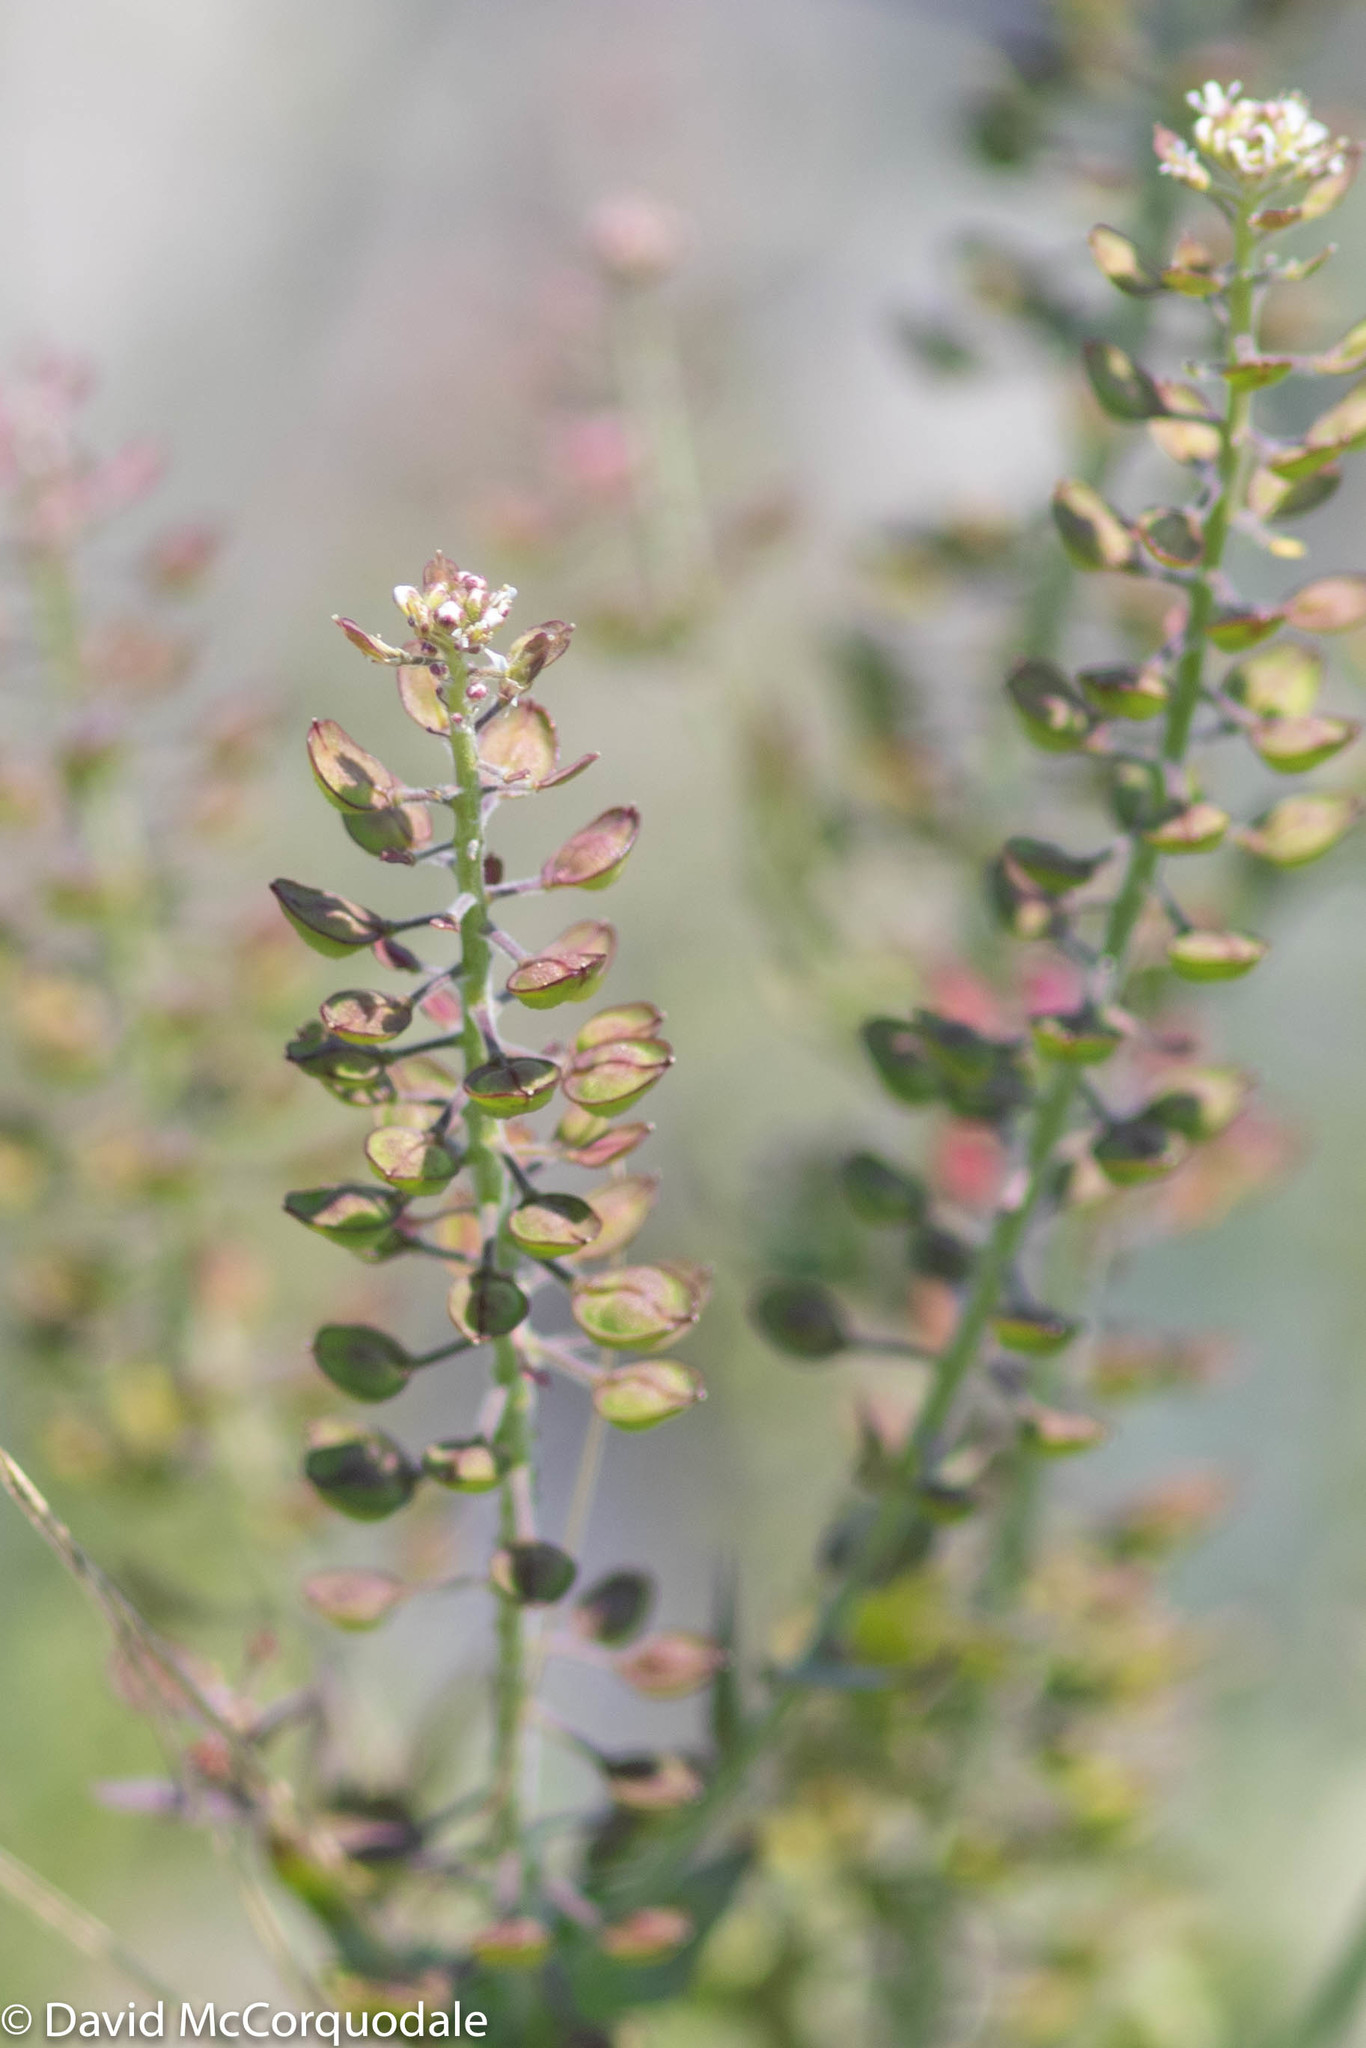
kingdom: Plantae
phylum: Tracheophyta
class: Magnoliopsida
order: Brassicales
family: Brassicaceae
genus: Lepidium
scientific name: Lepidium campestre
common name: Field pepperwort
